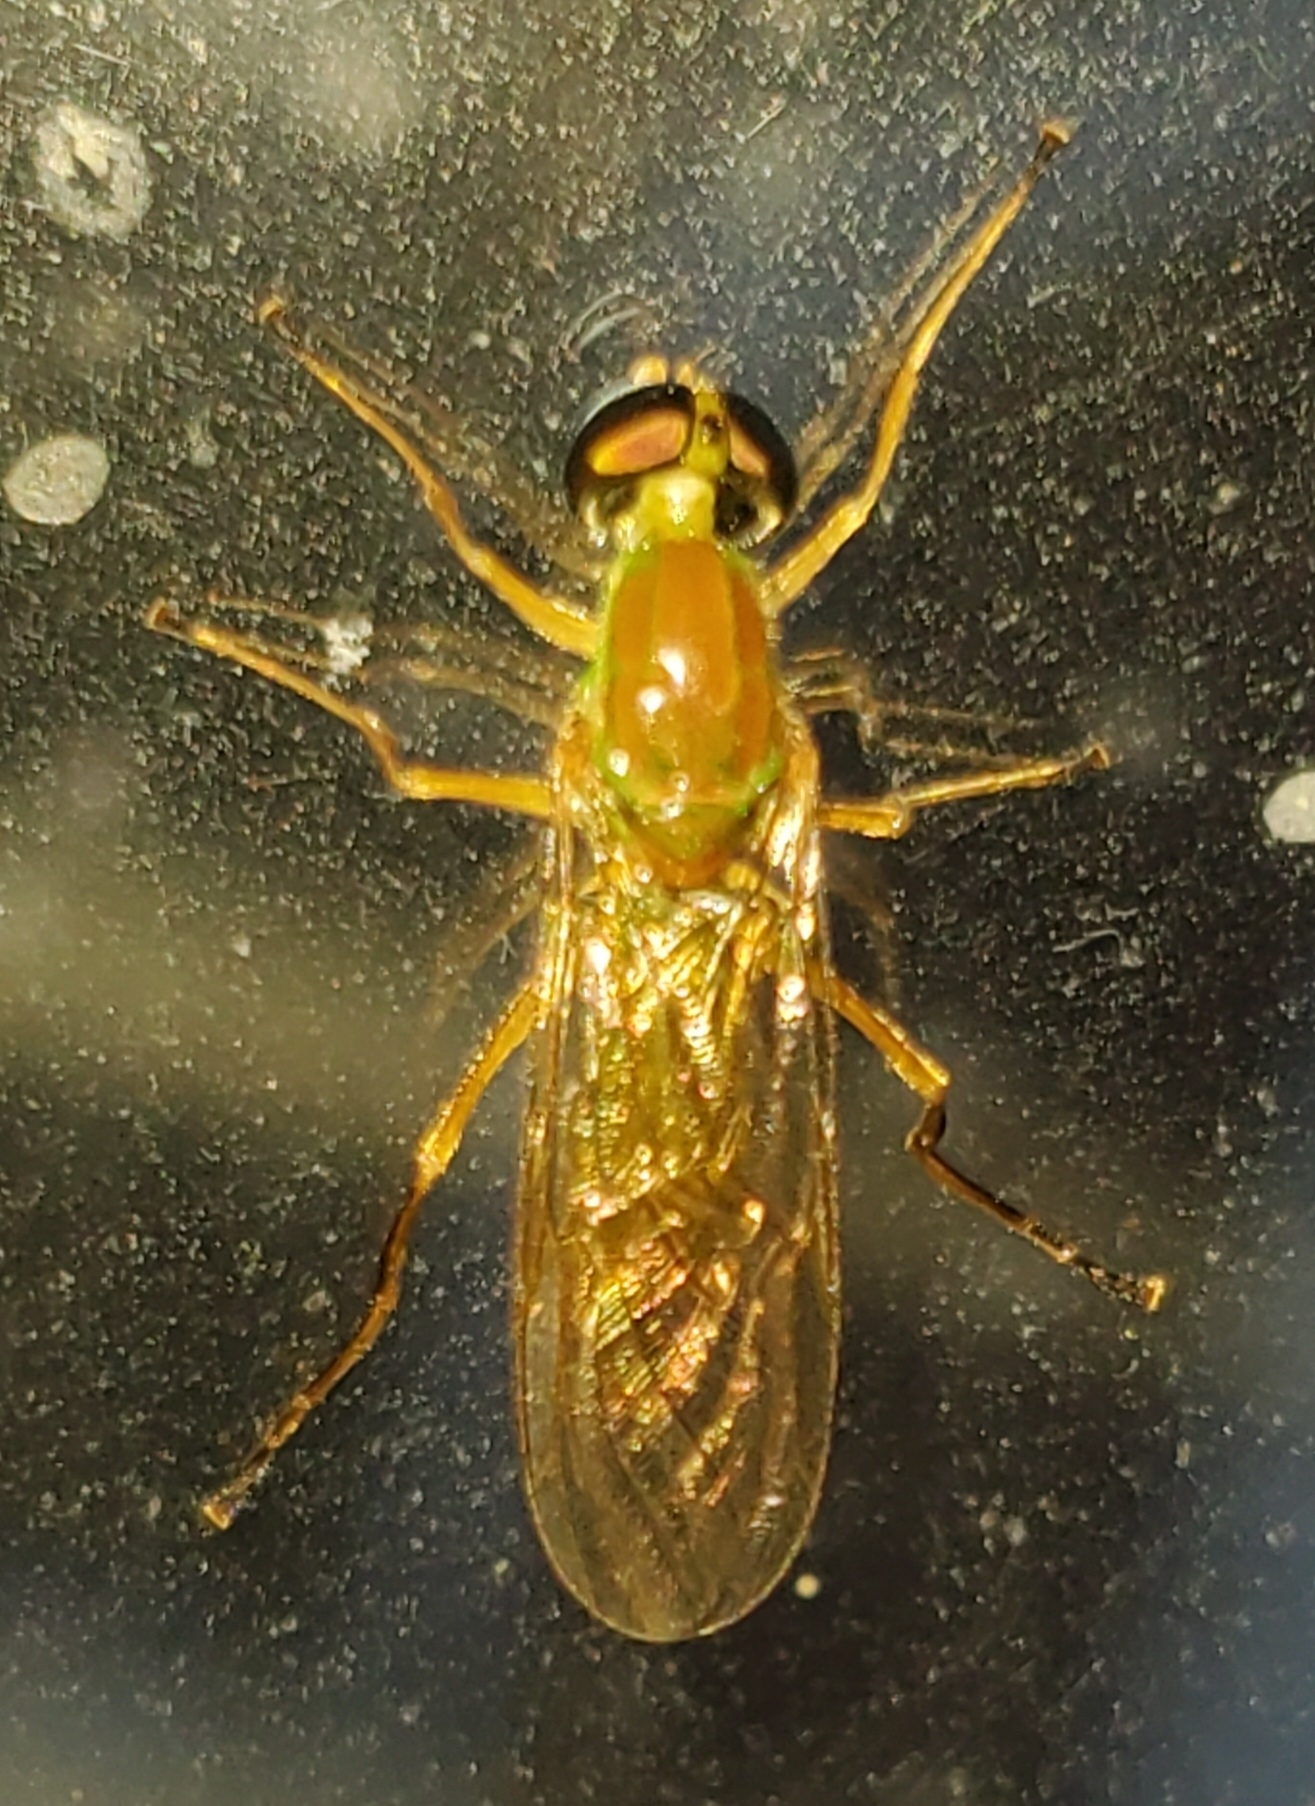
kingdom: Animalia
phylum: Arthropoda
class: Insecta
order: Diptera
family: Stratiomyidae
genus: Ptecticus
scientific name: Ptecticus trivittatus
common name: Compost fly
